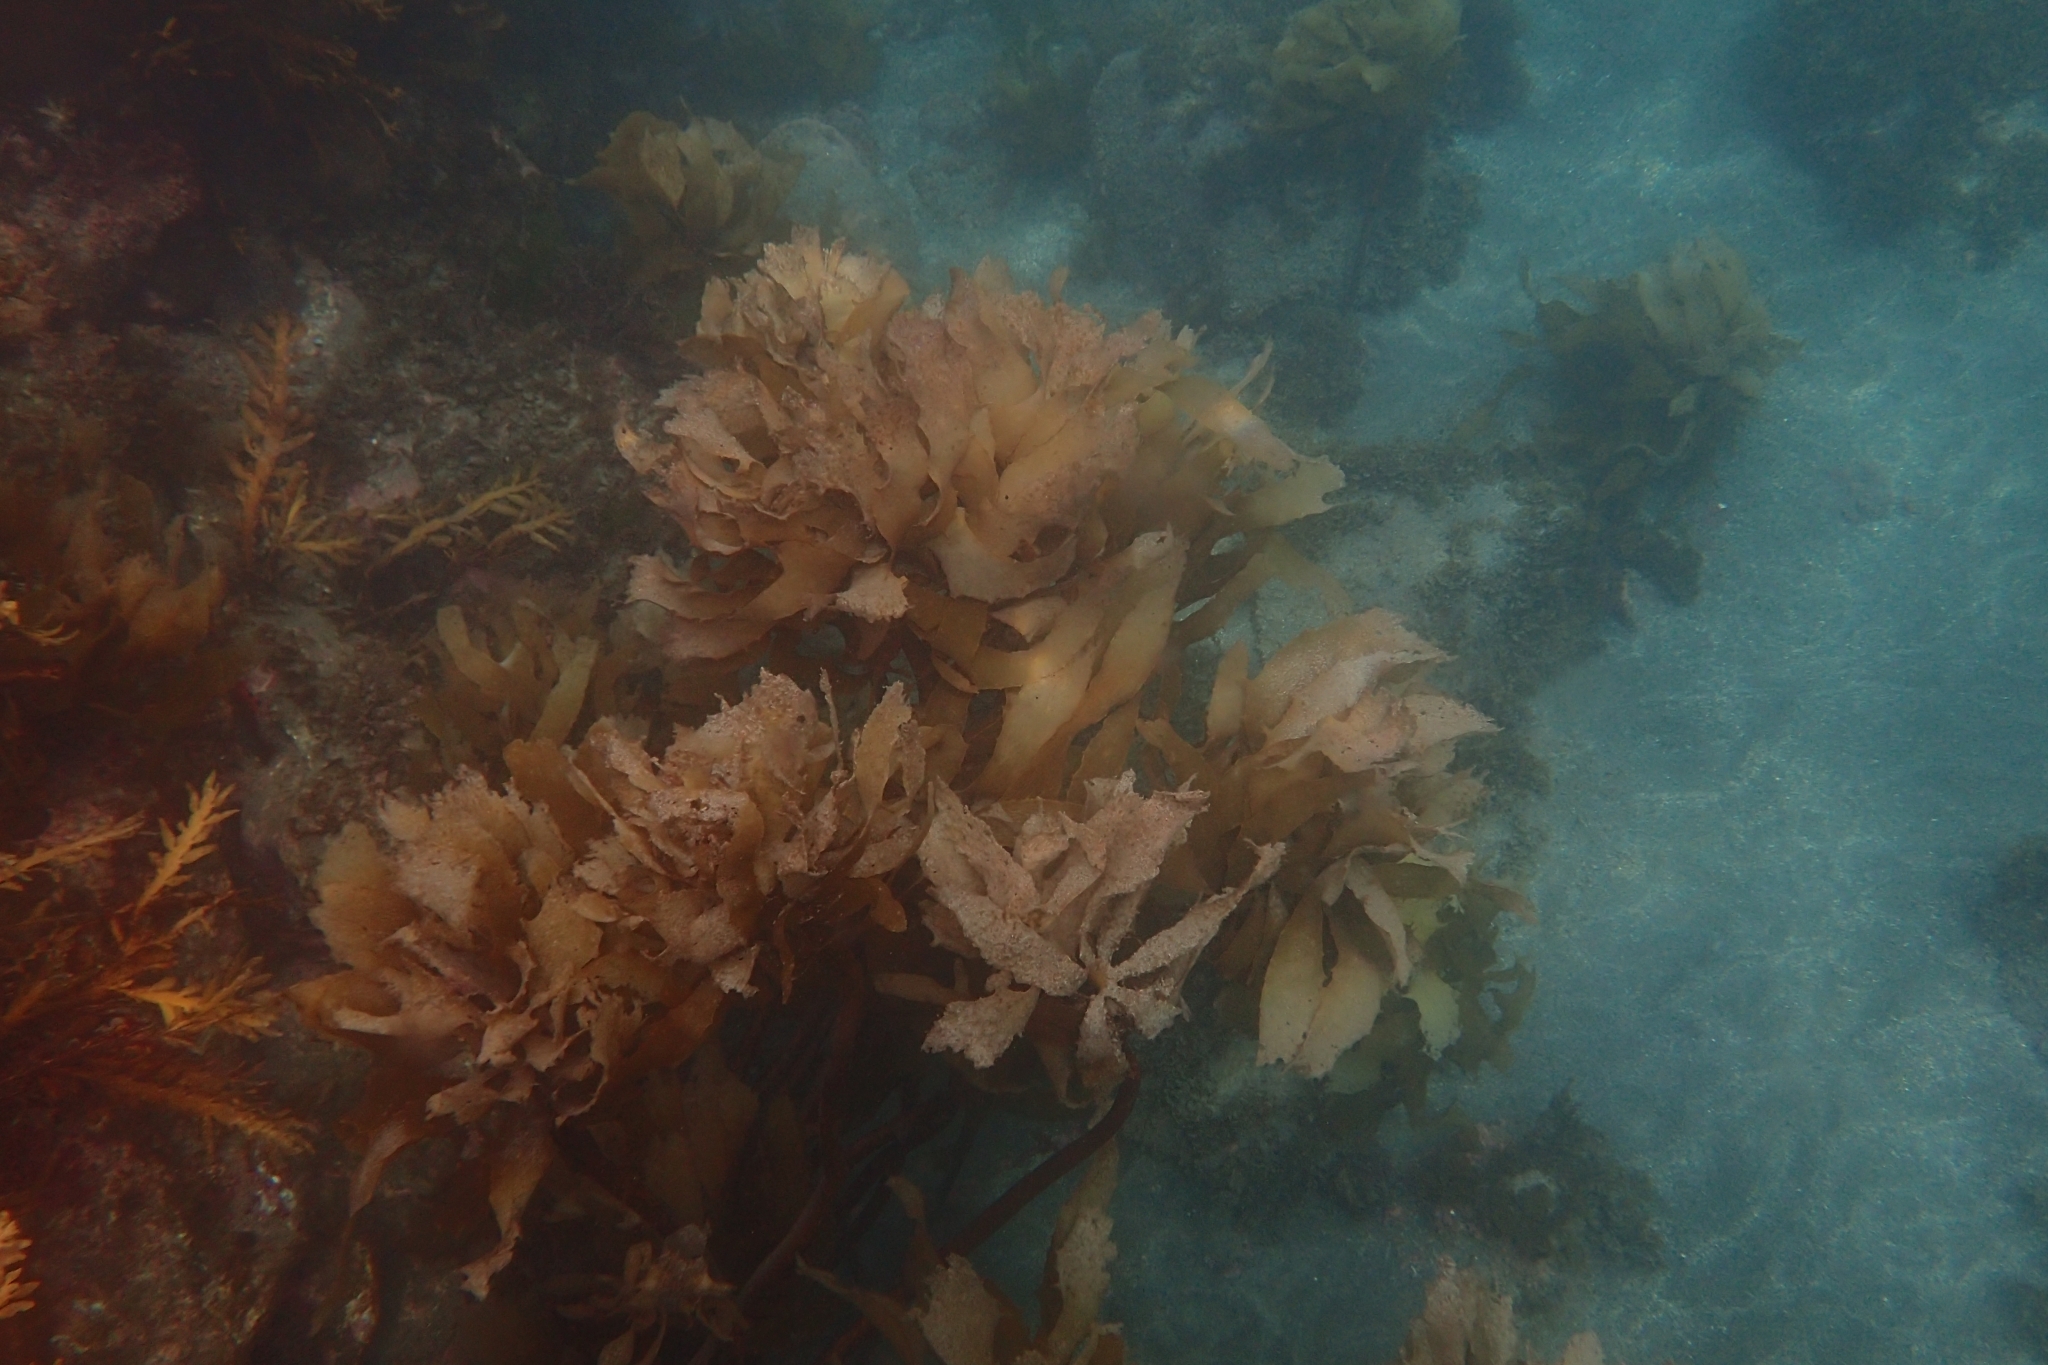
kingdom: Chromista
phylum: Ochrophyta
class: Phaeophyceae
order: Laminariales
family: Lessoniaceae
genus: Ecklonia
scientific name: Ecklonia radiata
